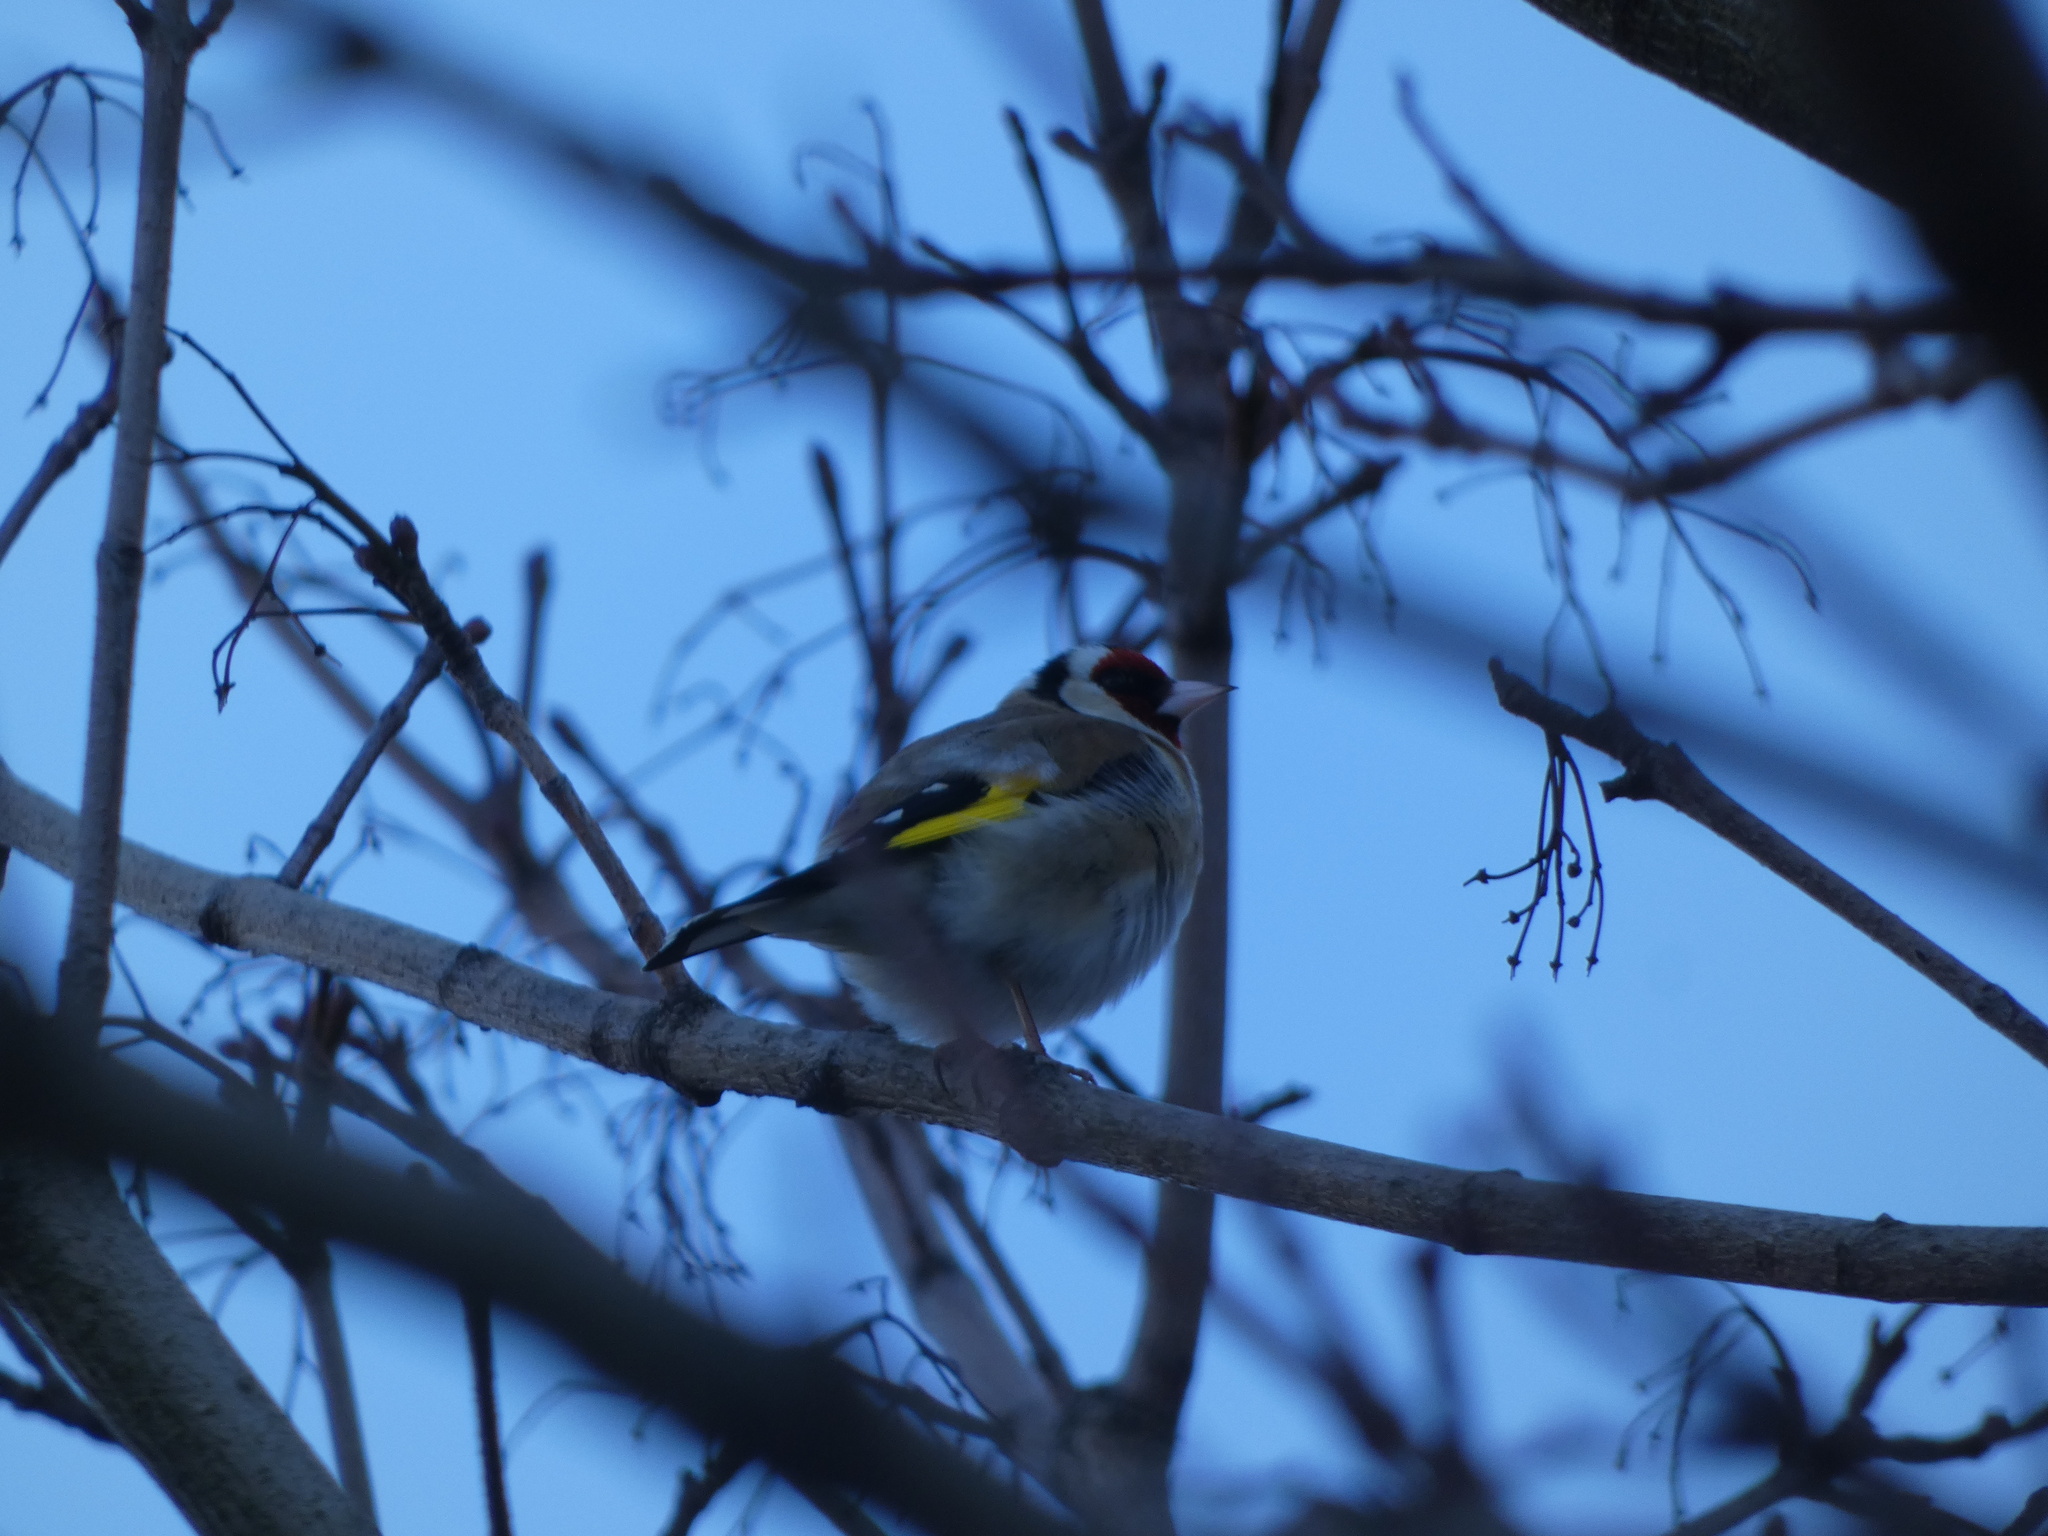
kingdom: Animalia
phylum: Chordata
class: Aves
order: Passeriformes
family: Fringillidae
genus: Carduelis
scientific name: Carduelis carduelis
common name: European goldfinch
